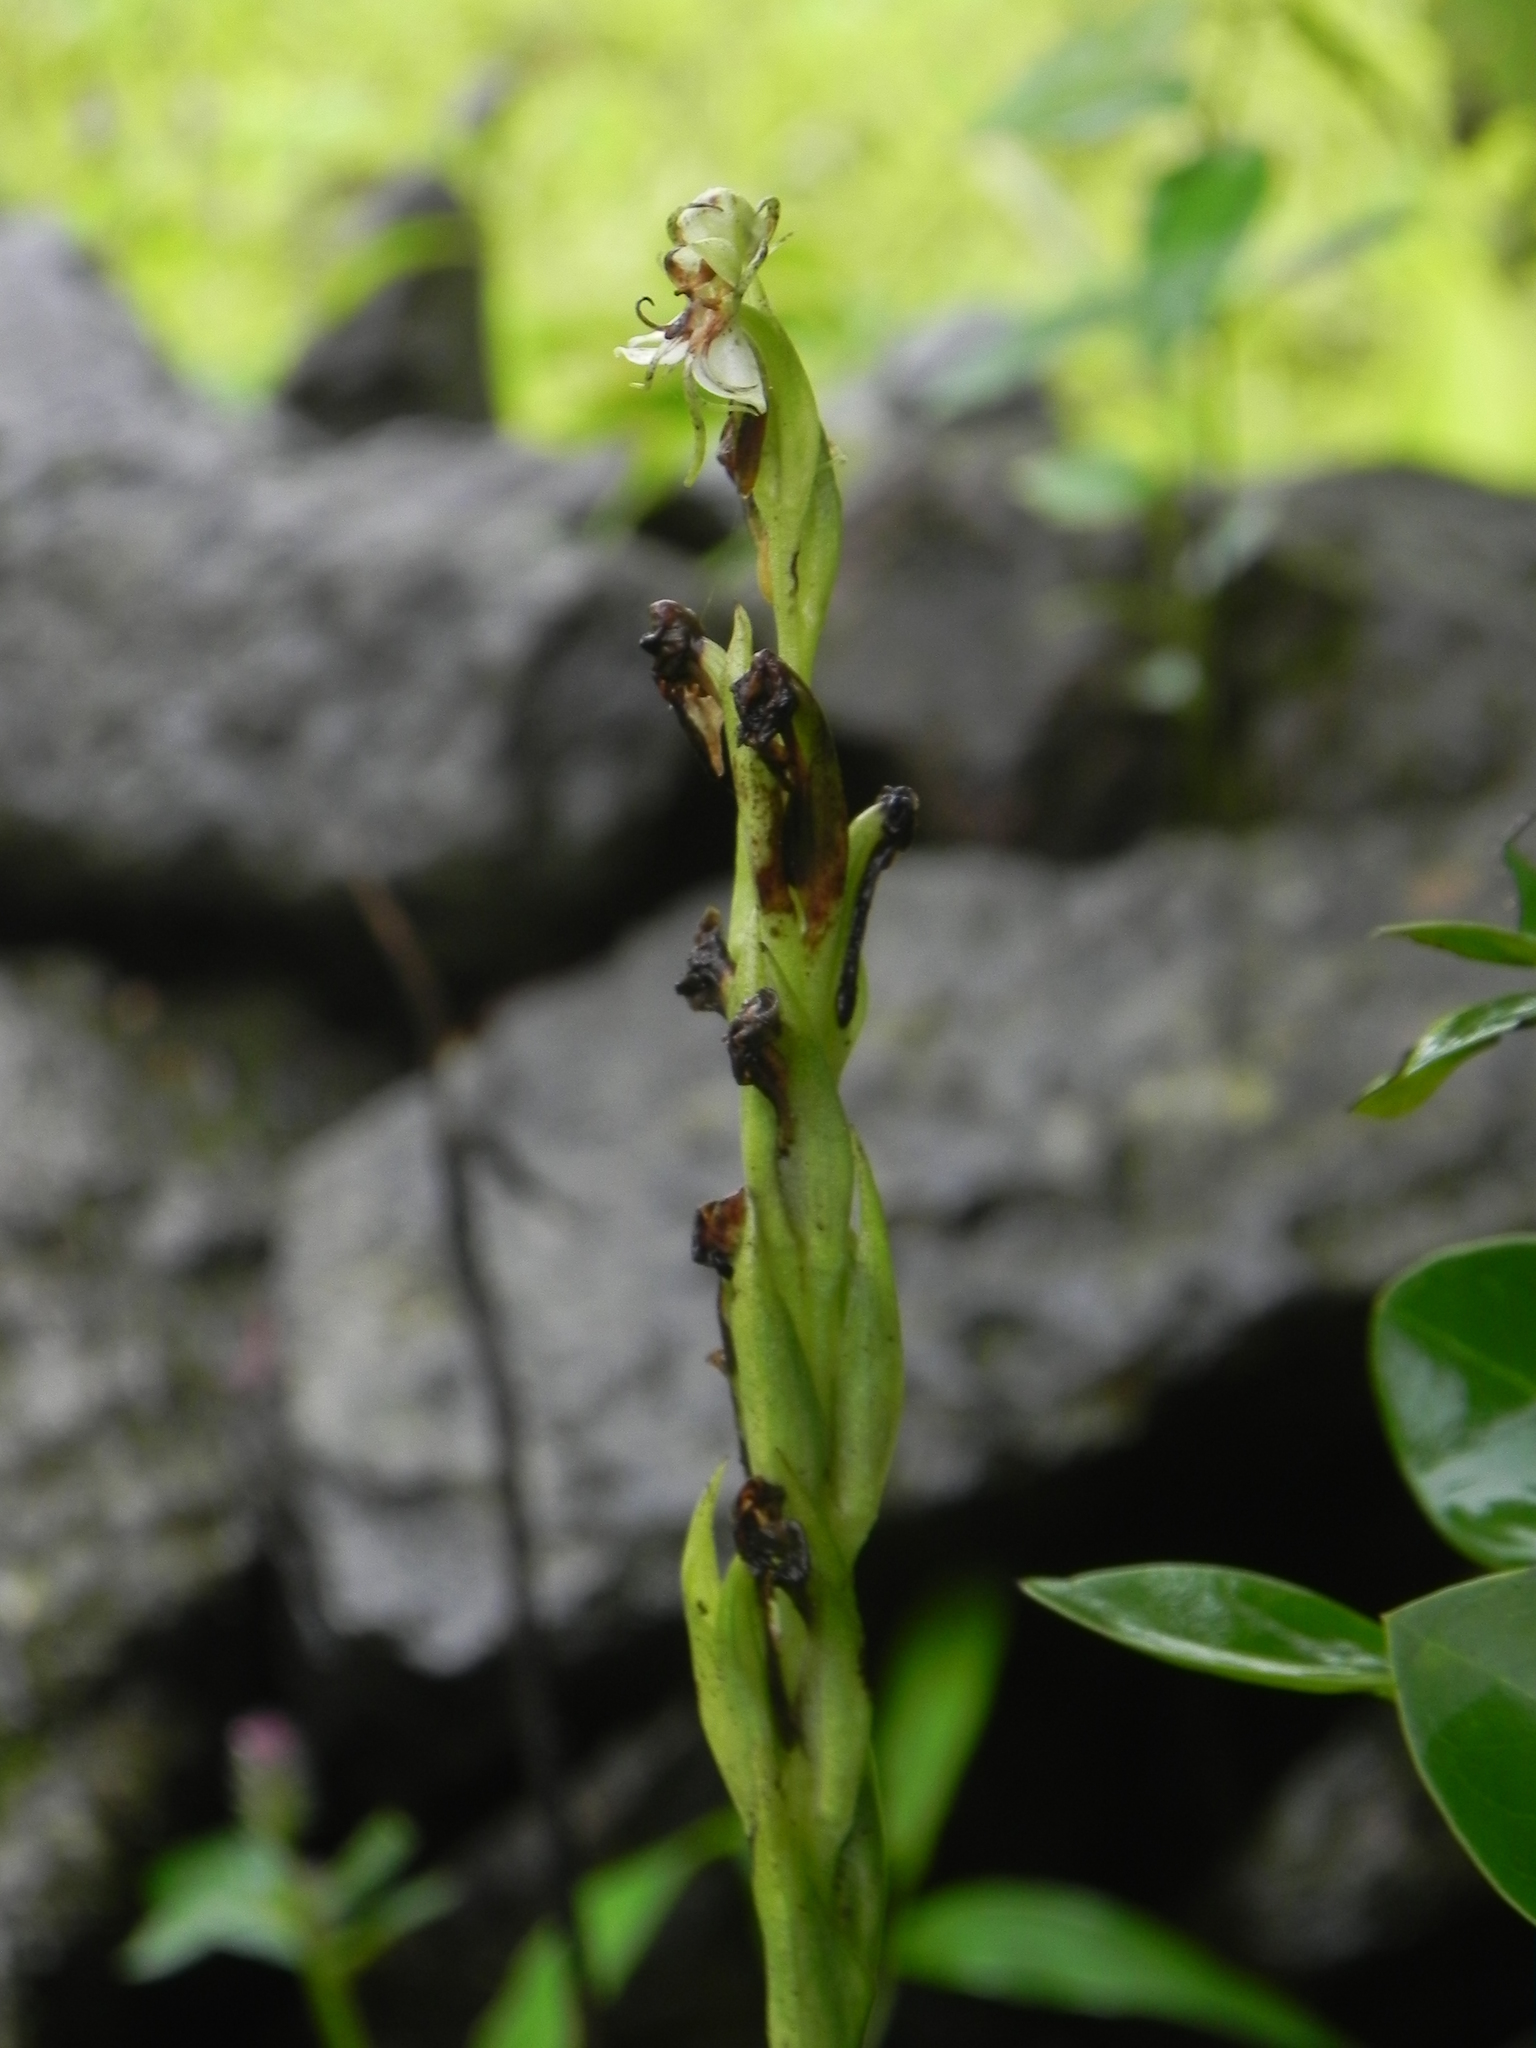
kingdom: Plantae
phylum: Tracheophyta
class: Liliopsida
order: Asparagales
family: Orchidaceae
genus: Habenaria
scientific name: Habenaria gibsonii
